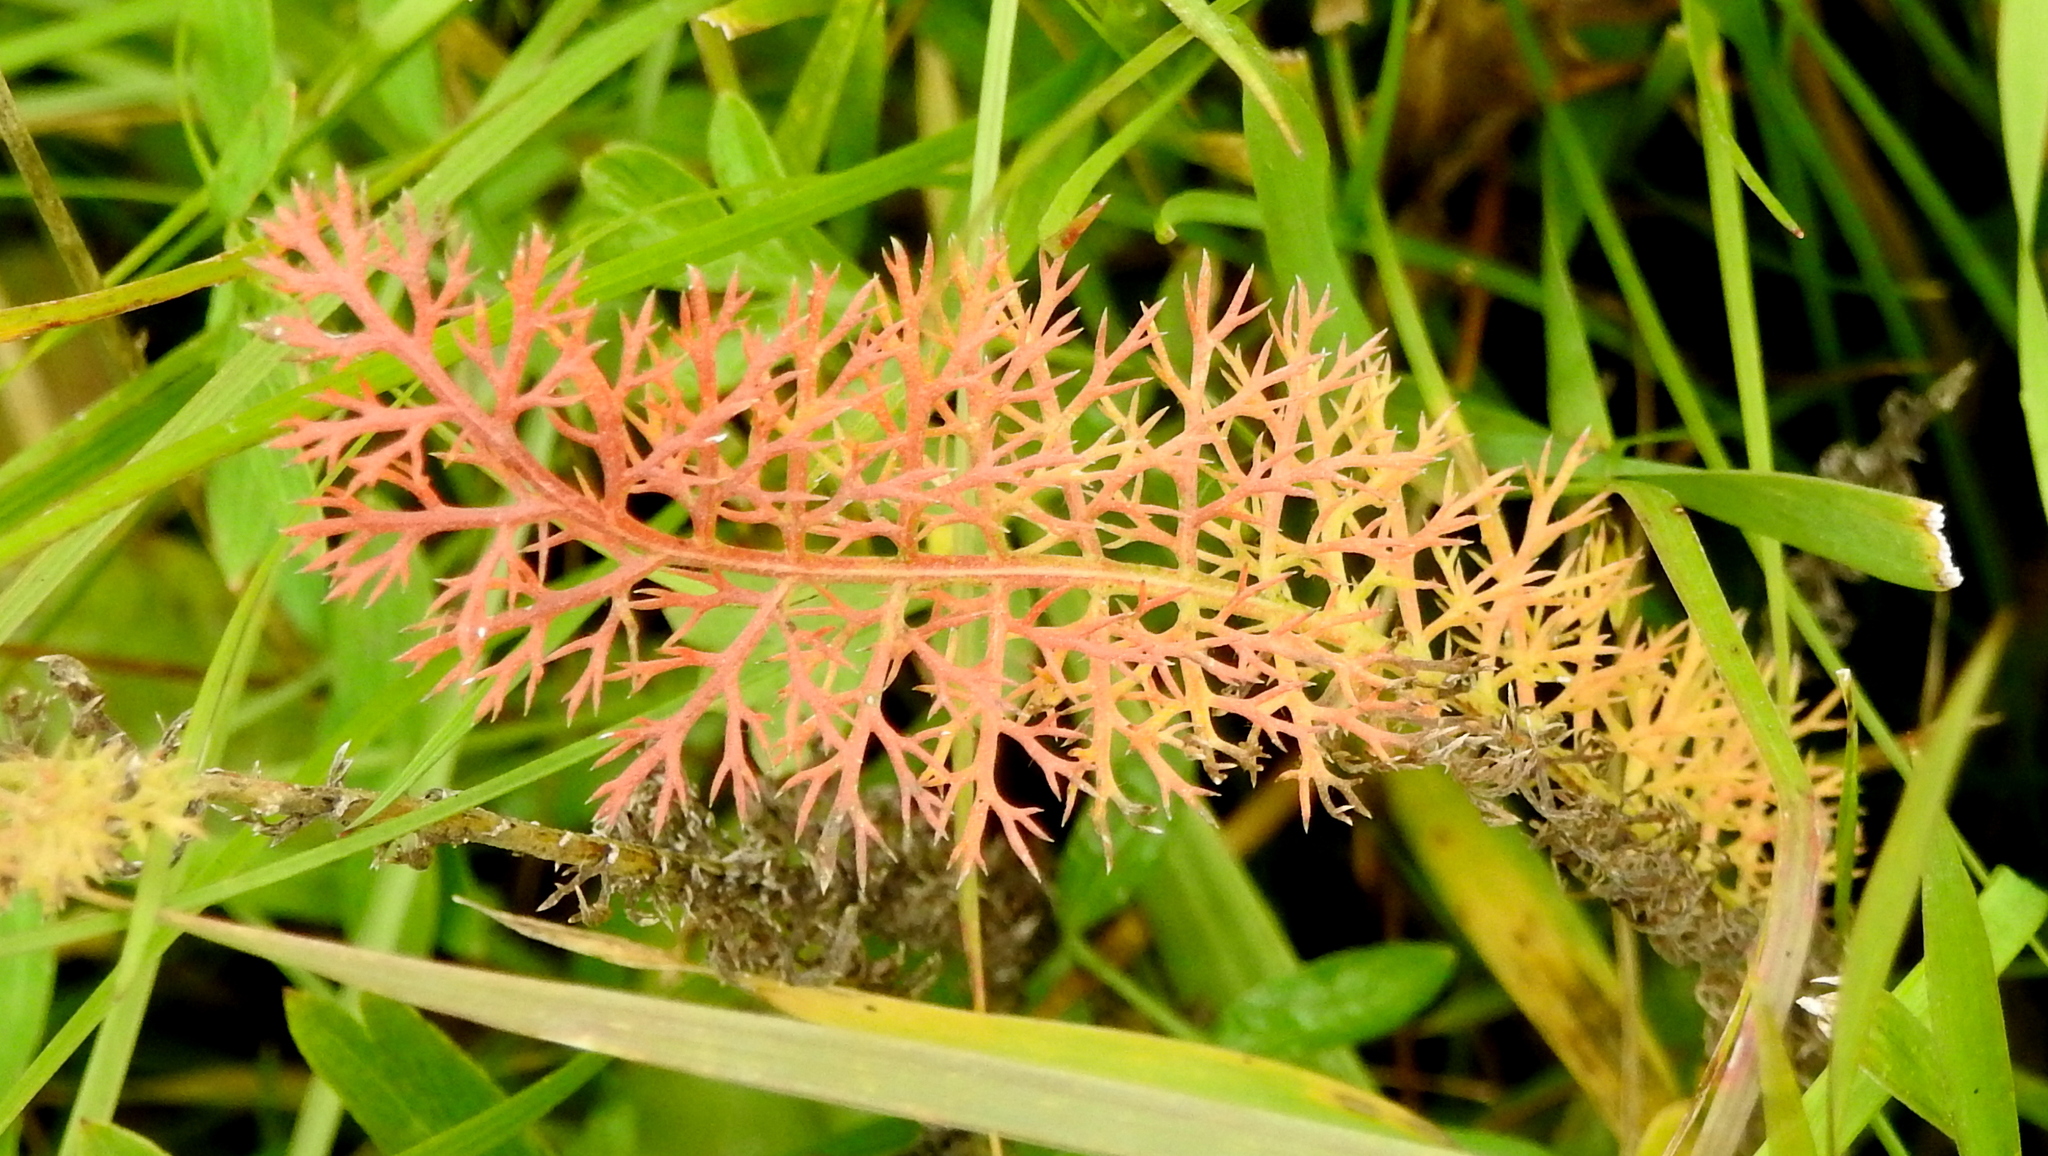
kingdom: Plantae
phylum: Tracheophyta
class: Magnoliopsida
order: Asterales
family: Asteraceae
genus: Achillea
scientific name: Achillea millefolium
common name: Yarrow
